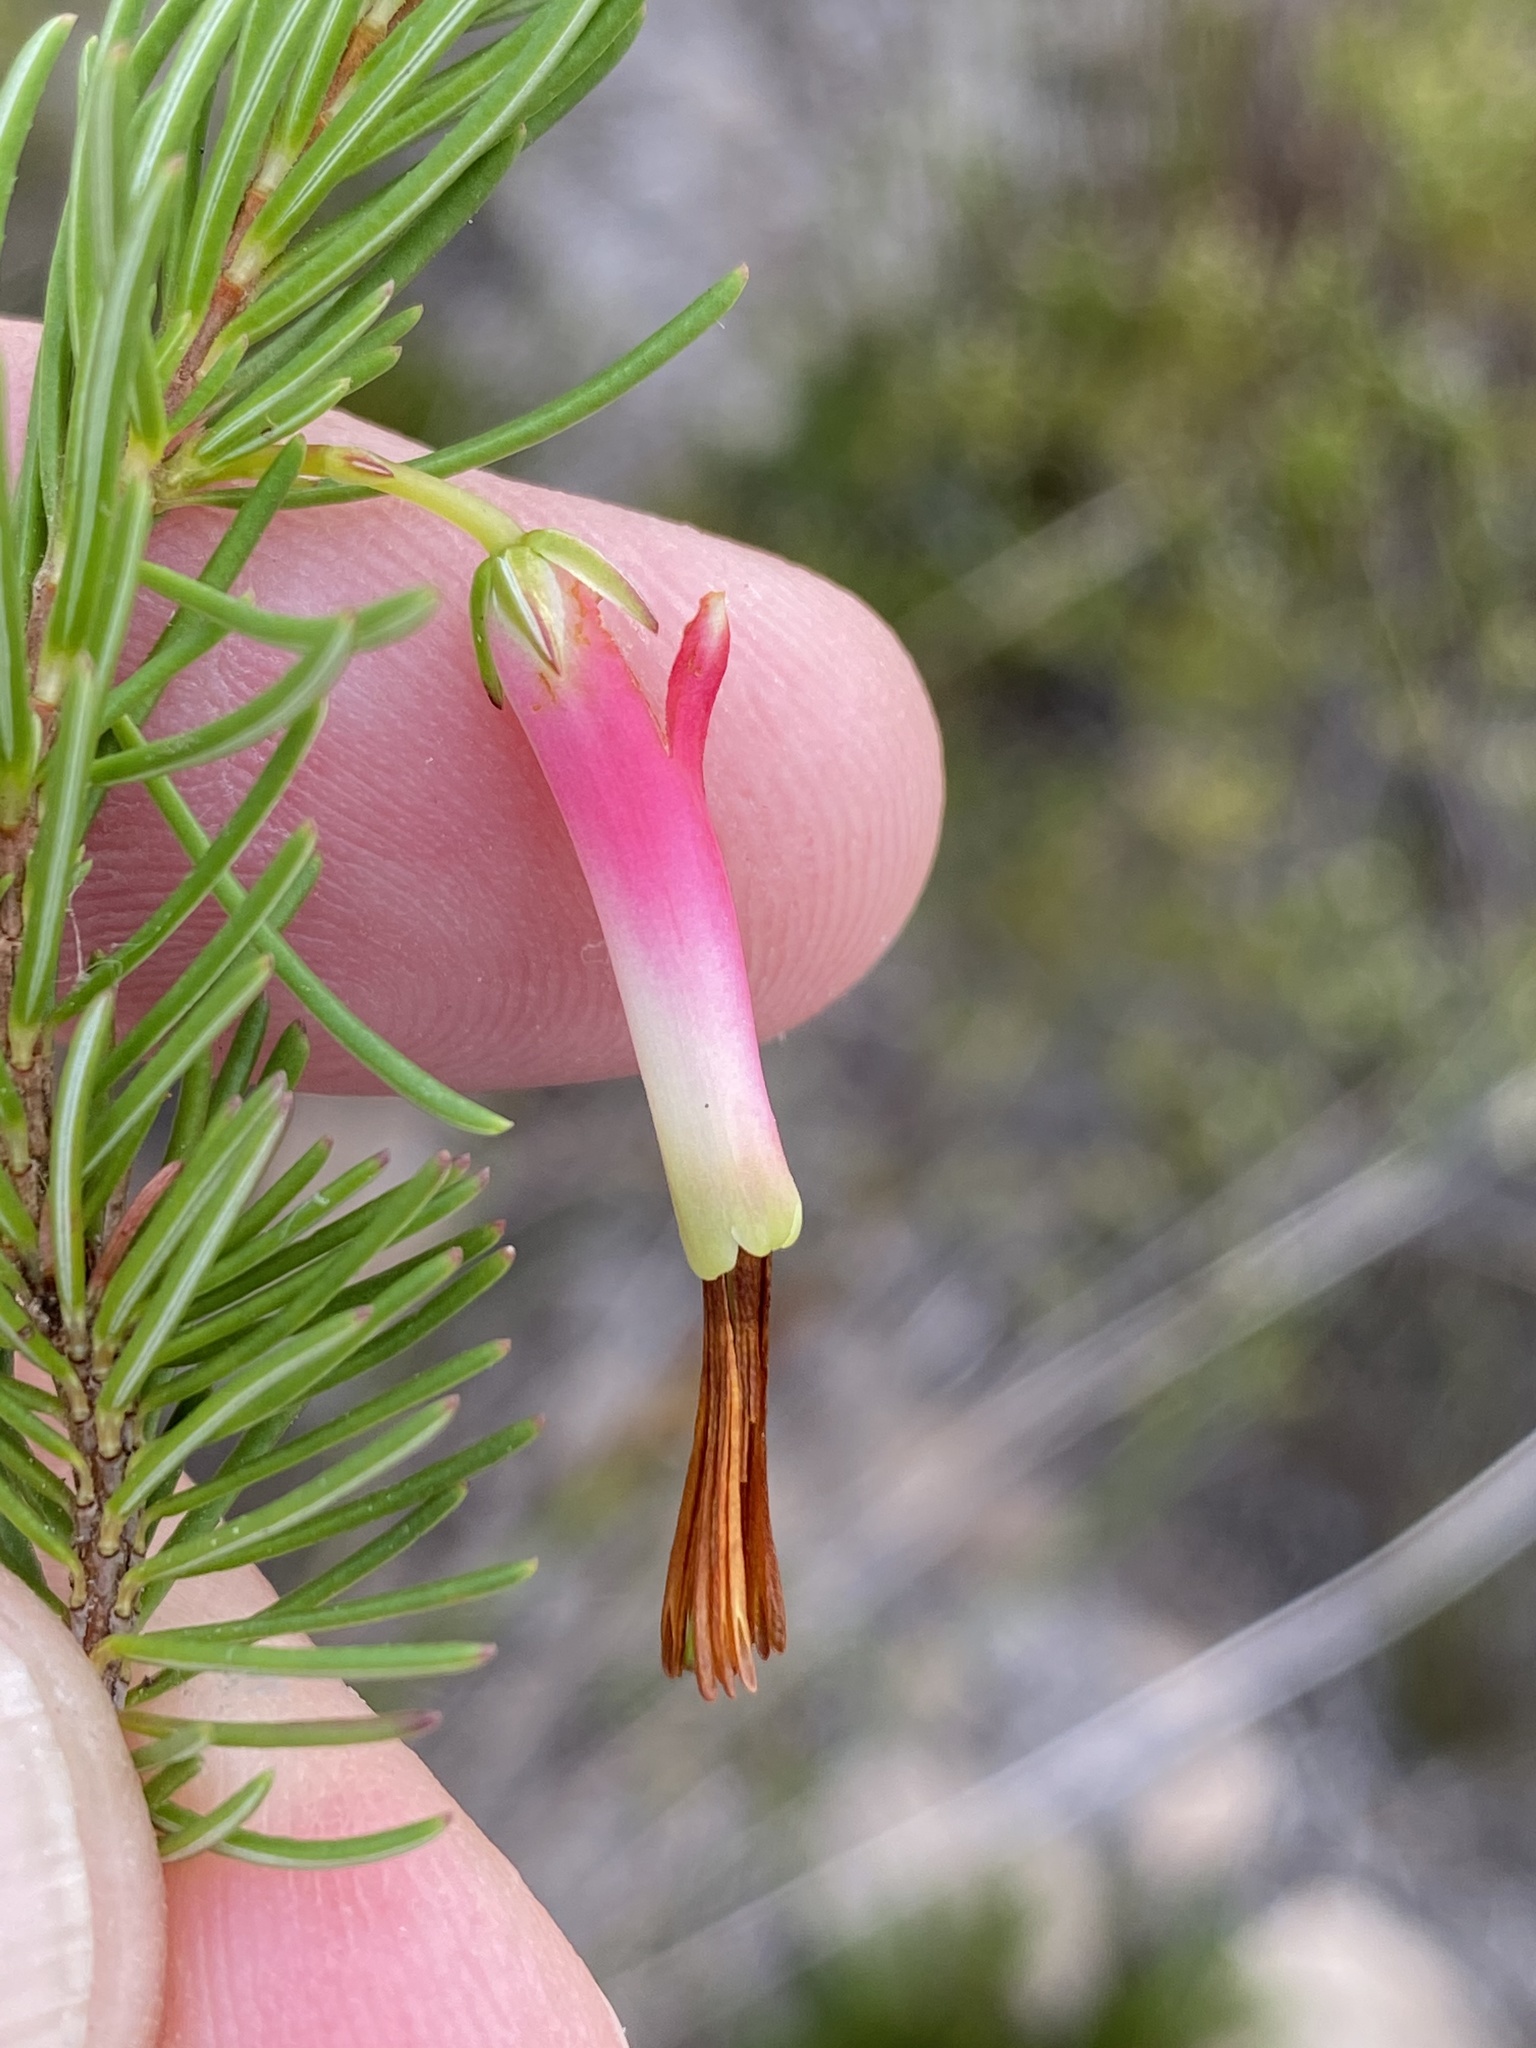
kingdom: Plantae
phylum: Tracheophyta
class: Magnoliopsida
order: Ericales
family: Ericaceae
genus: Erica
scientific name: Erica plukenetii
